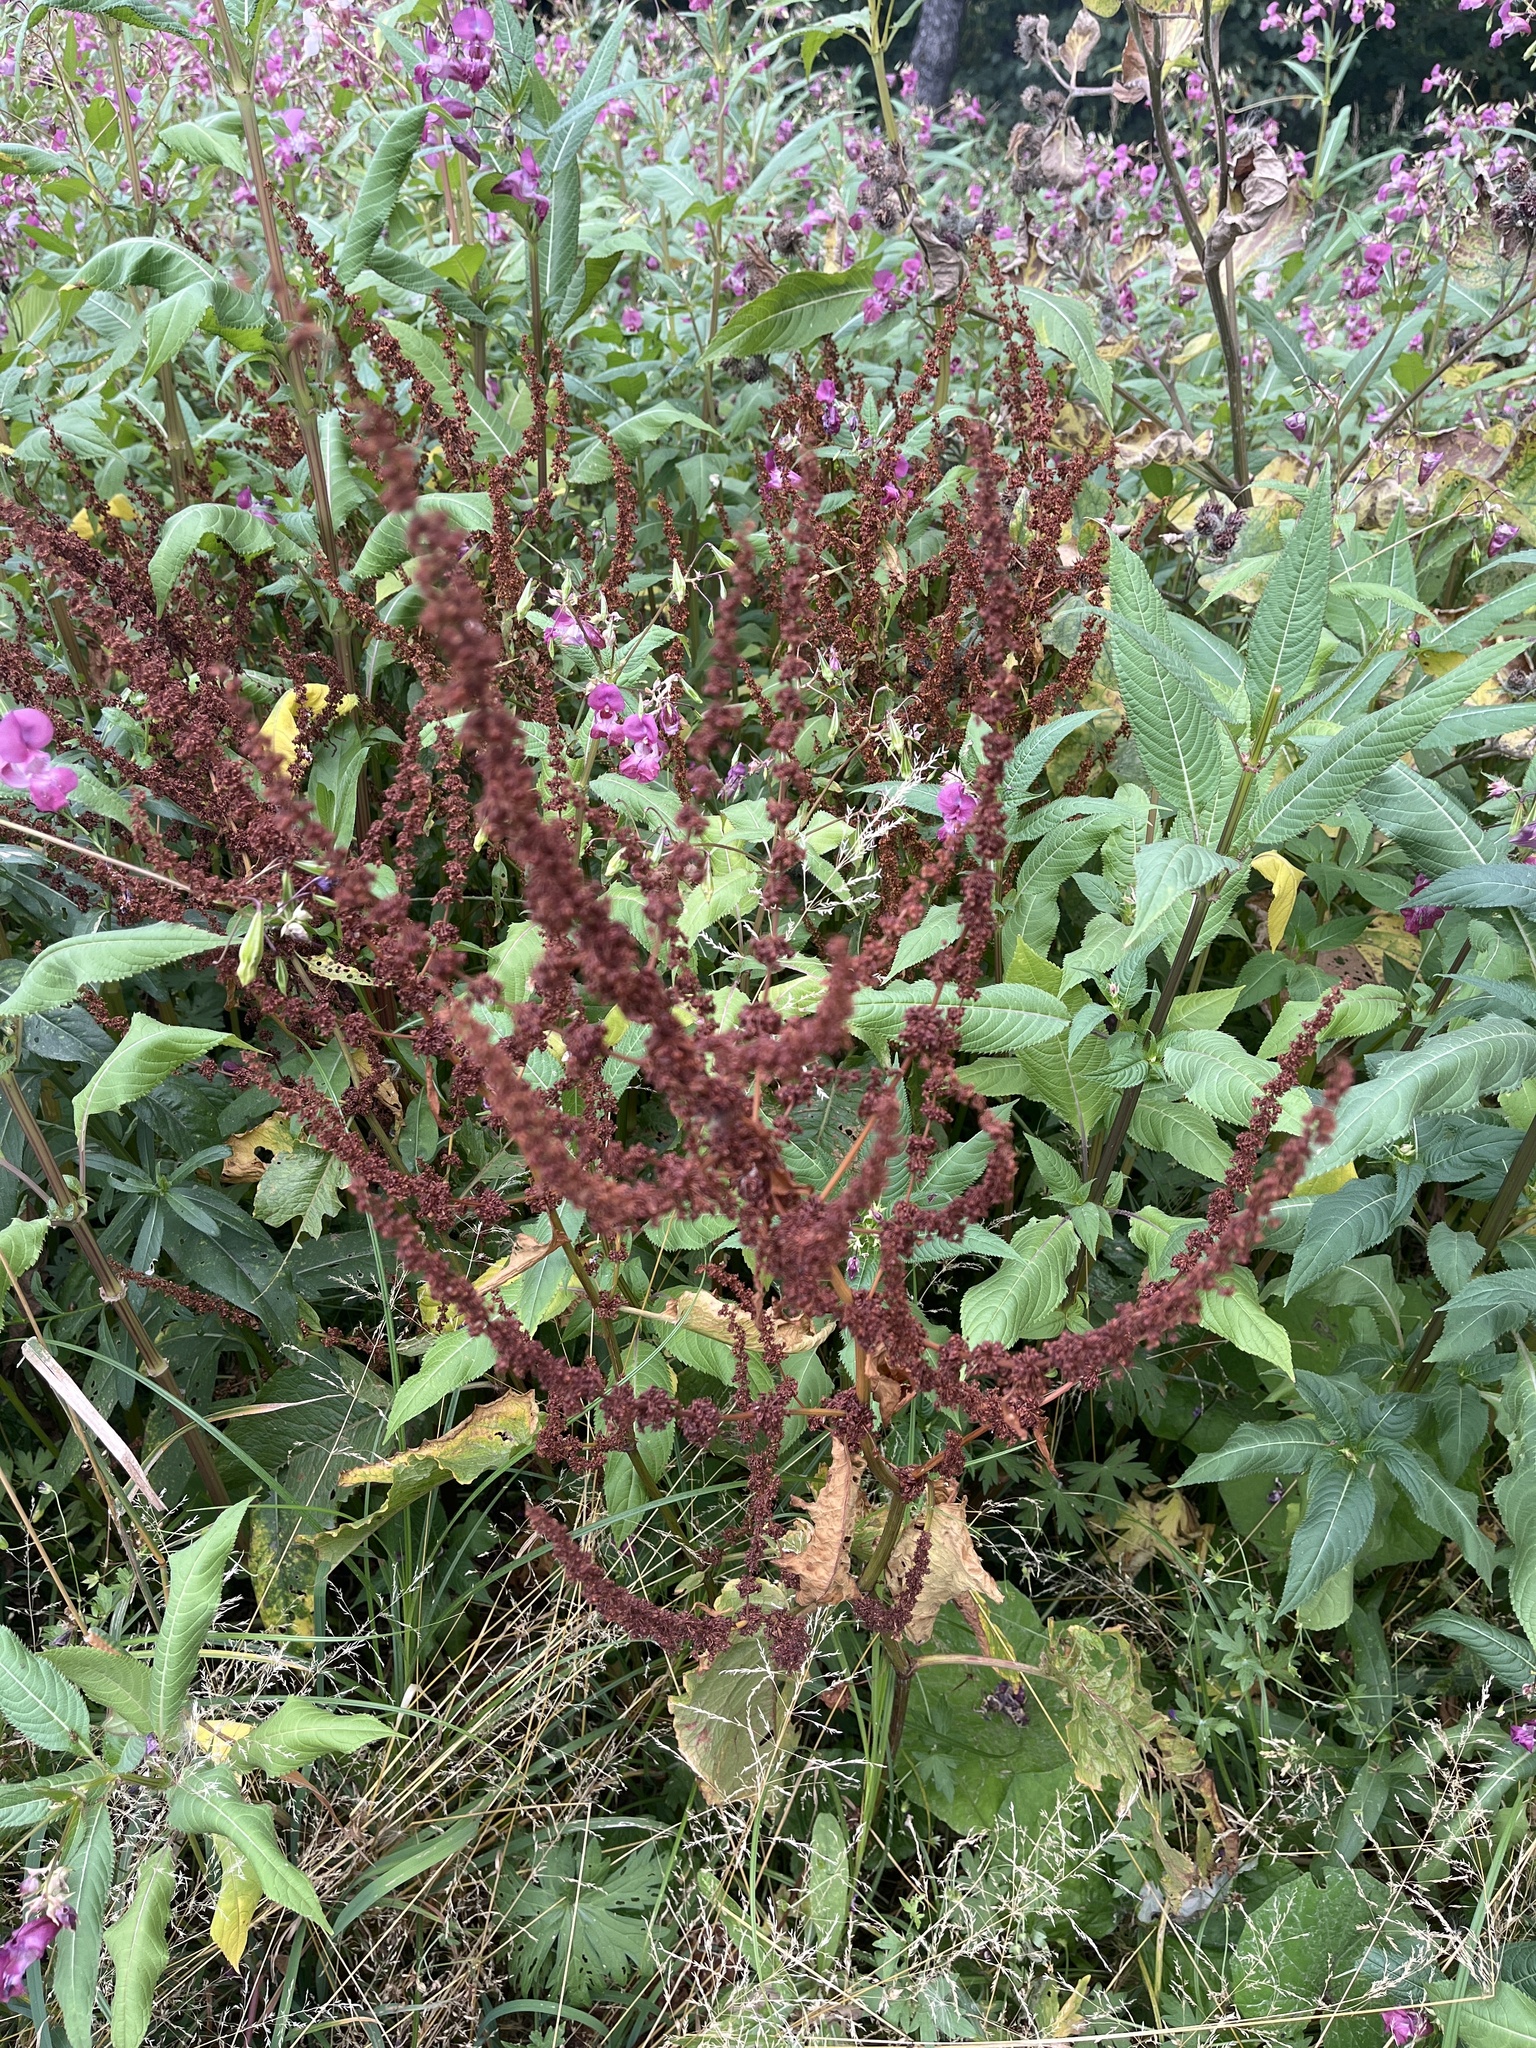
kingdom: Plantae
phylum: Tracheophyta
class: Magnoliopsida
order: Caryophyllales
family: Polygonaceae
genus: Rumex
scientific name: Rumex obtusifolius
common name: Bitter dock
